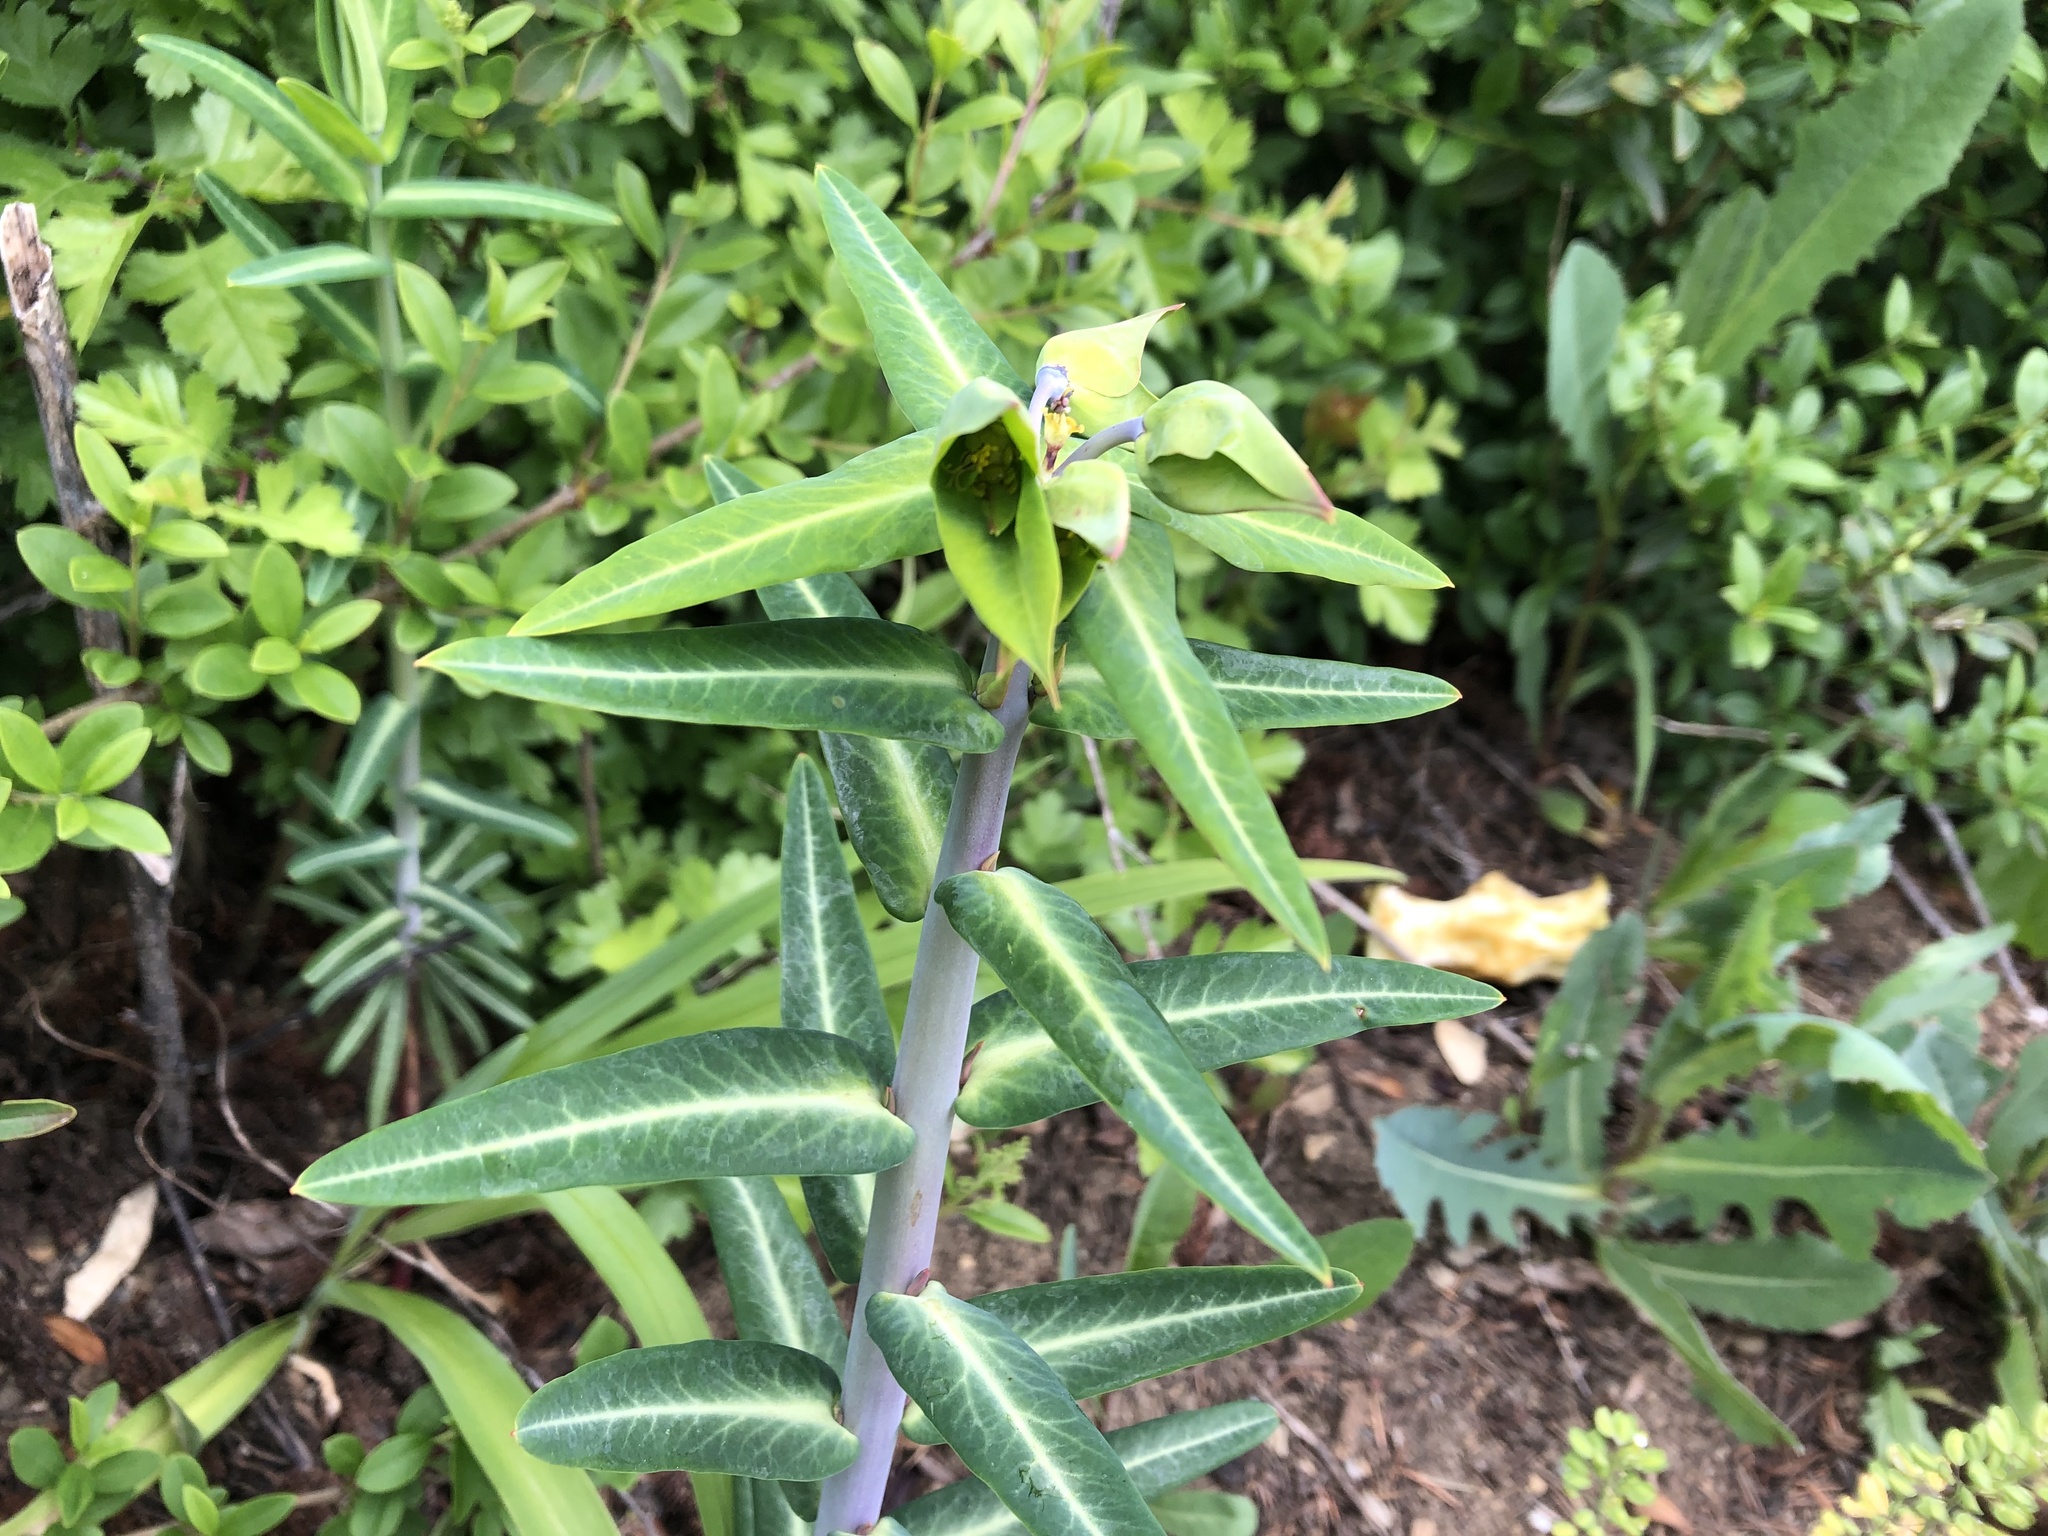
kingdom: Plantae
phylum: Tracheophyta
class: Magnoliopsida
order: Malpighiales
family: Euphorbiaceae
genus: Euphorbia
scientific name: Euphorbia lathyris
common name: Caper spurge
